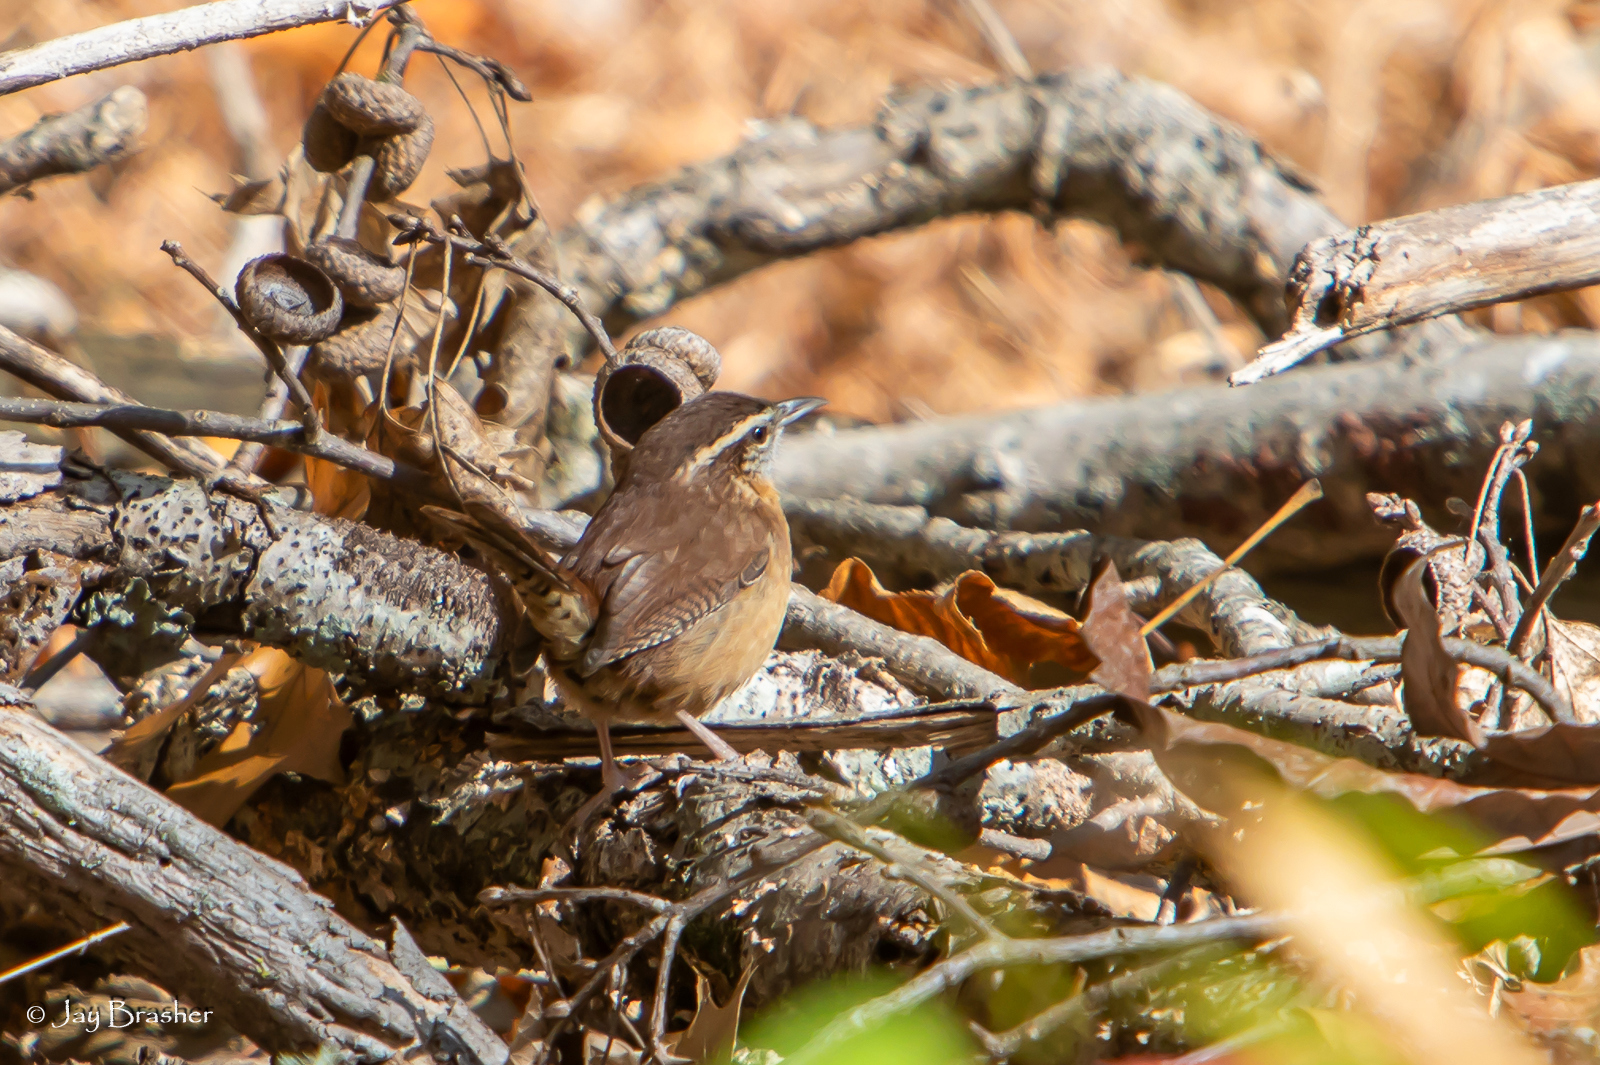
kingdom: Animalia
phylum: Chordata
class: Aves
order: Passeriformes
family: Troglodytidae
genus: Thryothorus
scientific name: Thryothorus ludovicianus
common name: Carolina wren
